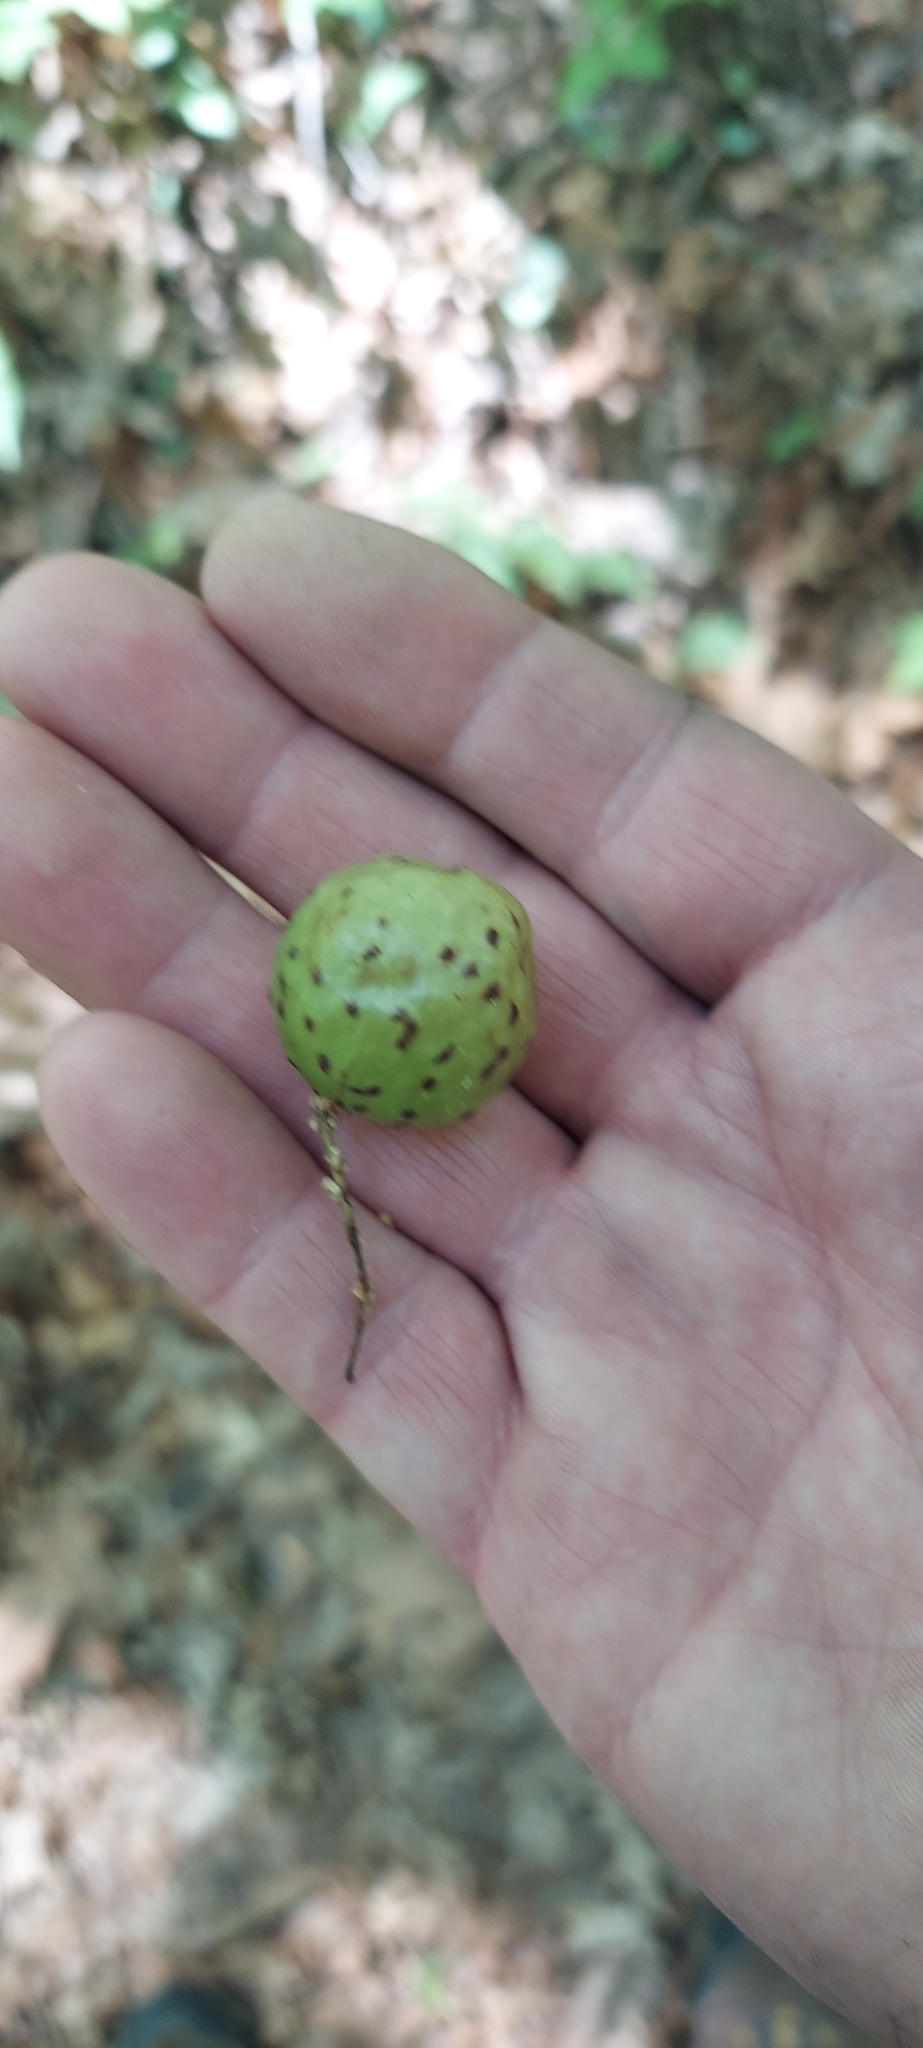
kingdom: Animalia
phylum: Arthropoda
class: Insecta
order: Hymenoptera
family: Cynipidae
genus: Amphibolips
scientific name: Amphibolips
